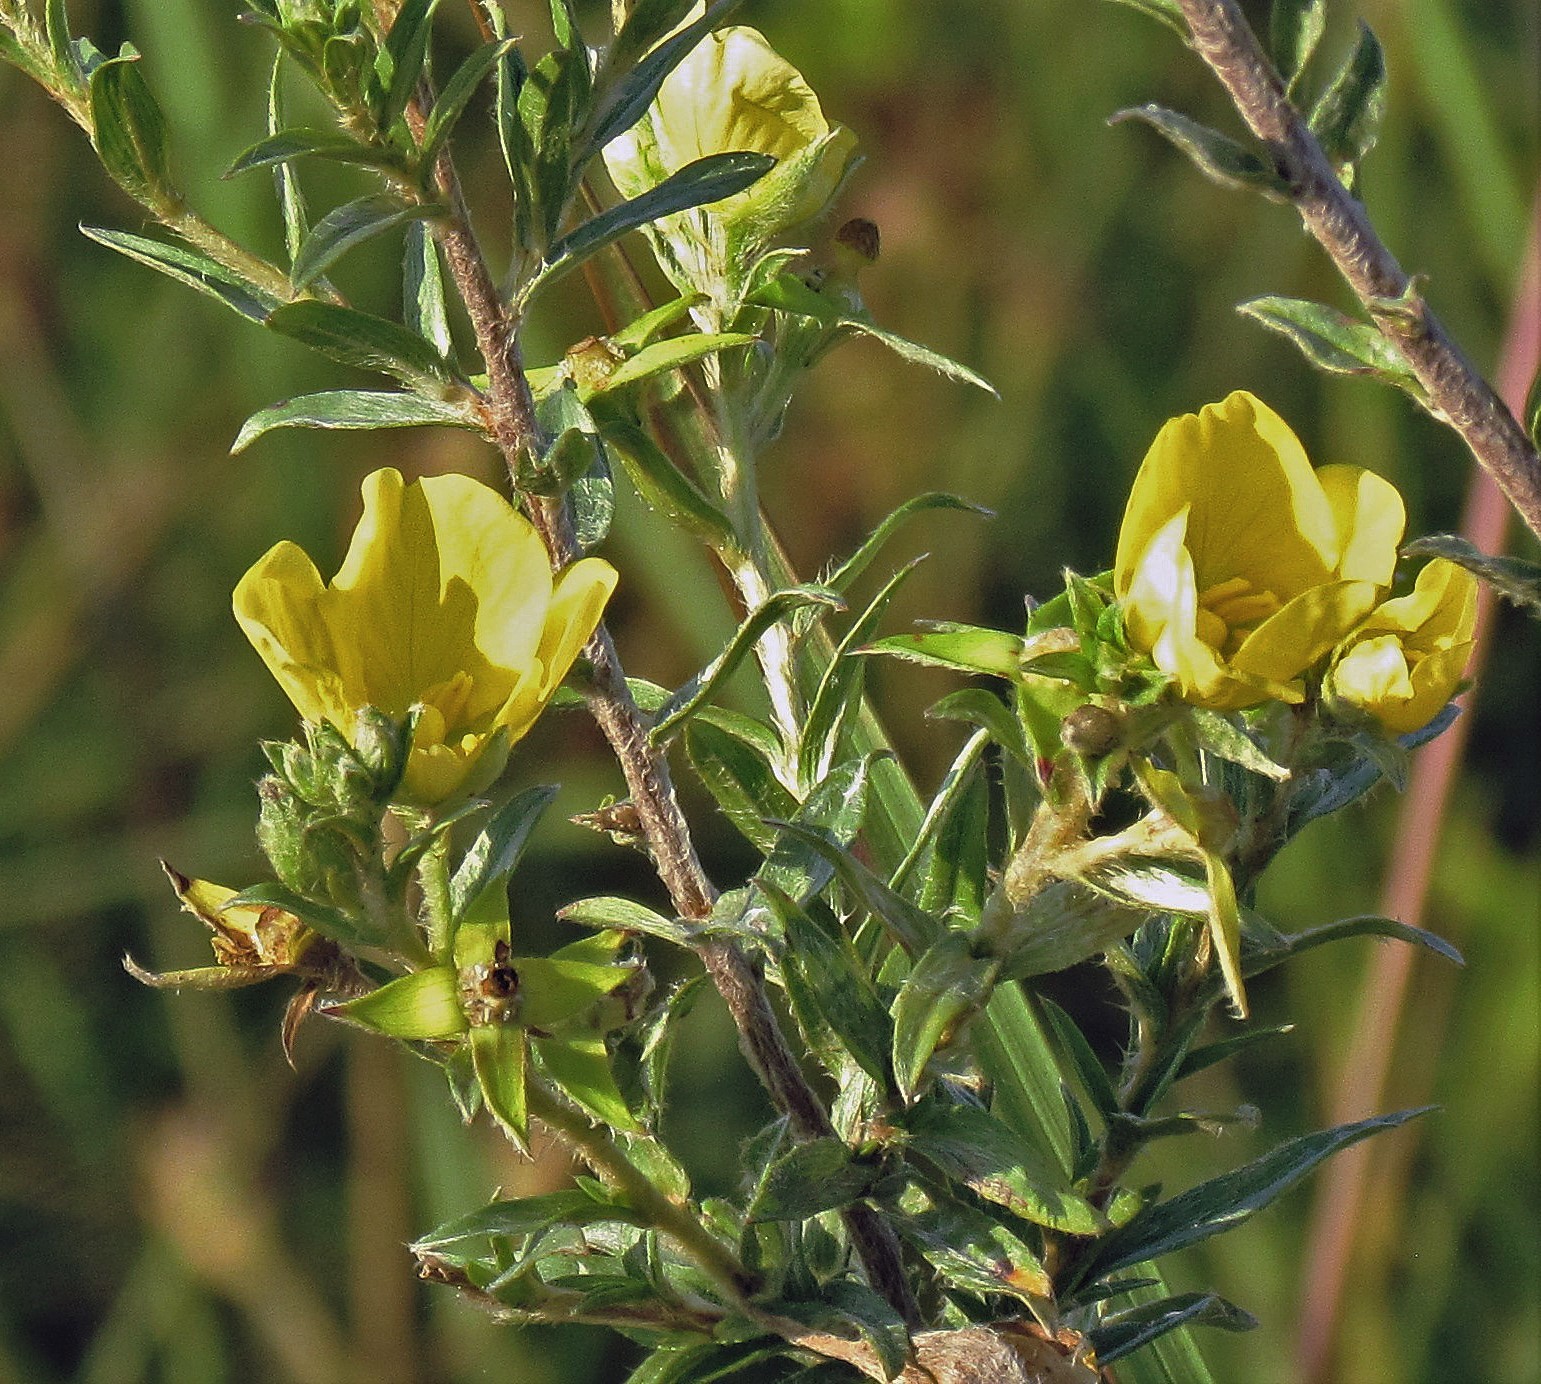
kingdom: Plantae
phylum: Tracheophyta
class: Magnoliopsida
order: Myrtales
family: Onagraceae
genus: Ludwigia
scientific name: Ludwigia sericea
